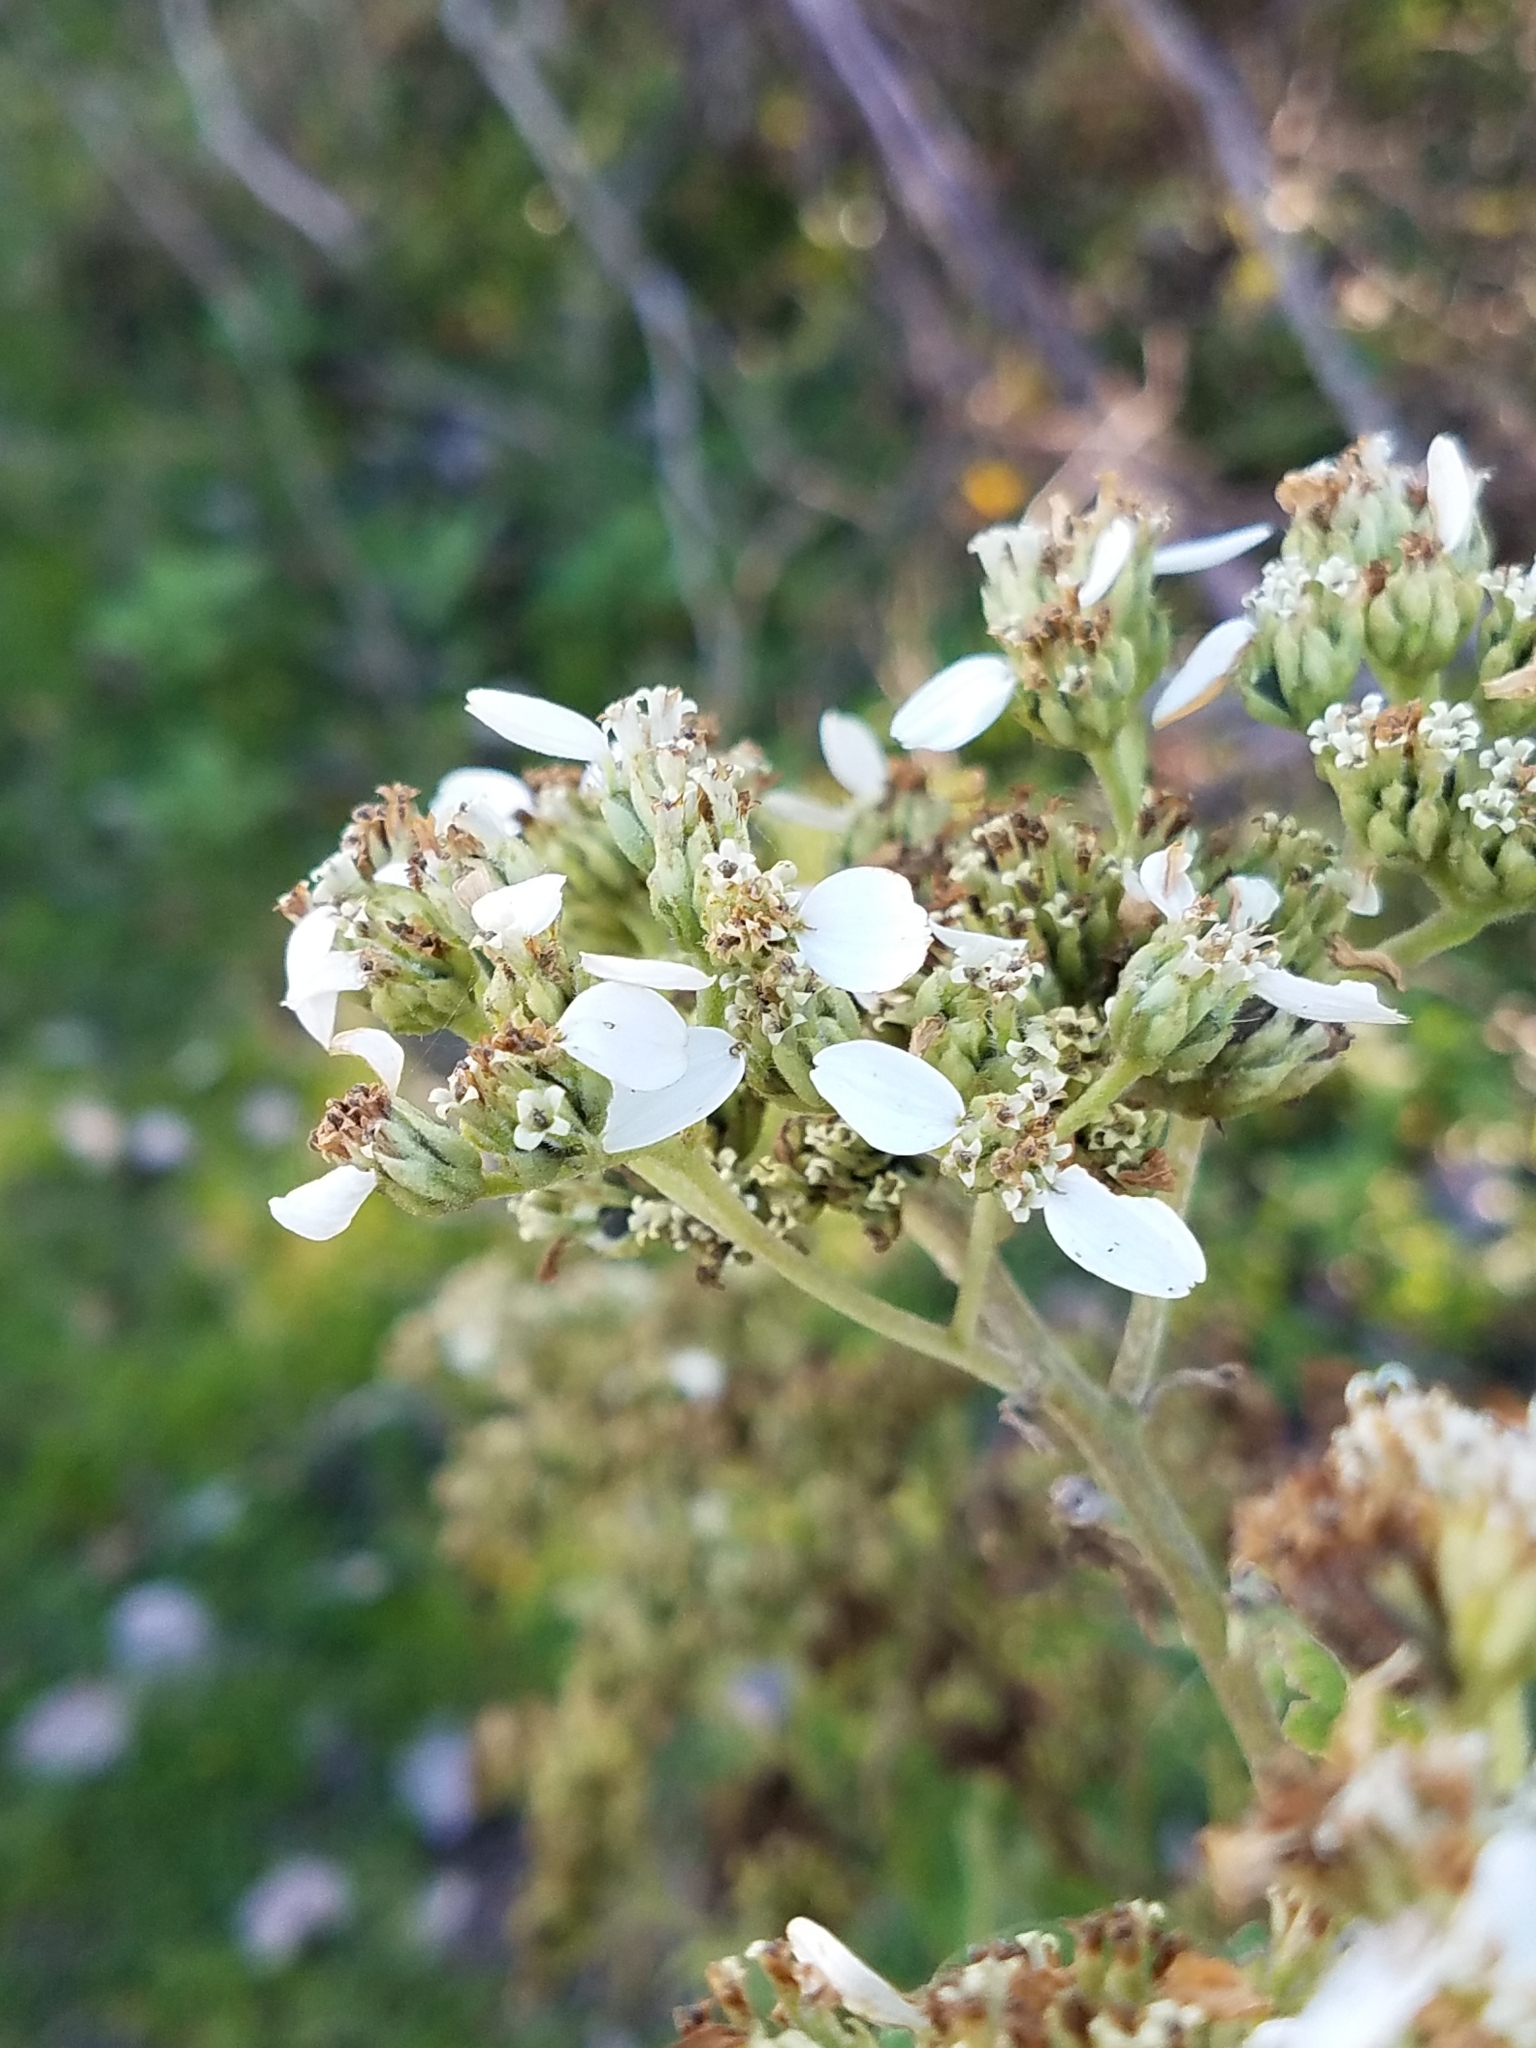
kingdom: Plantae
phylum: Tracheophyta
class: Magnoliopsida
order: Asterales
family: Asteraceae
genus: Verbesina
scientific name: Verbesina virginica
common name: Frostweed
